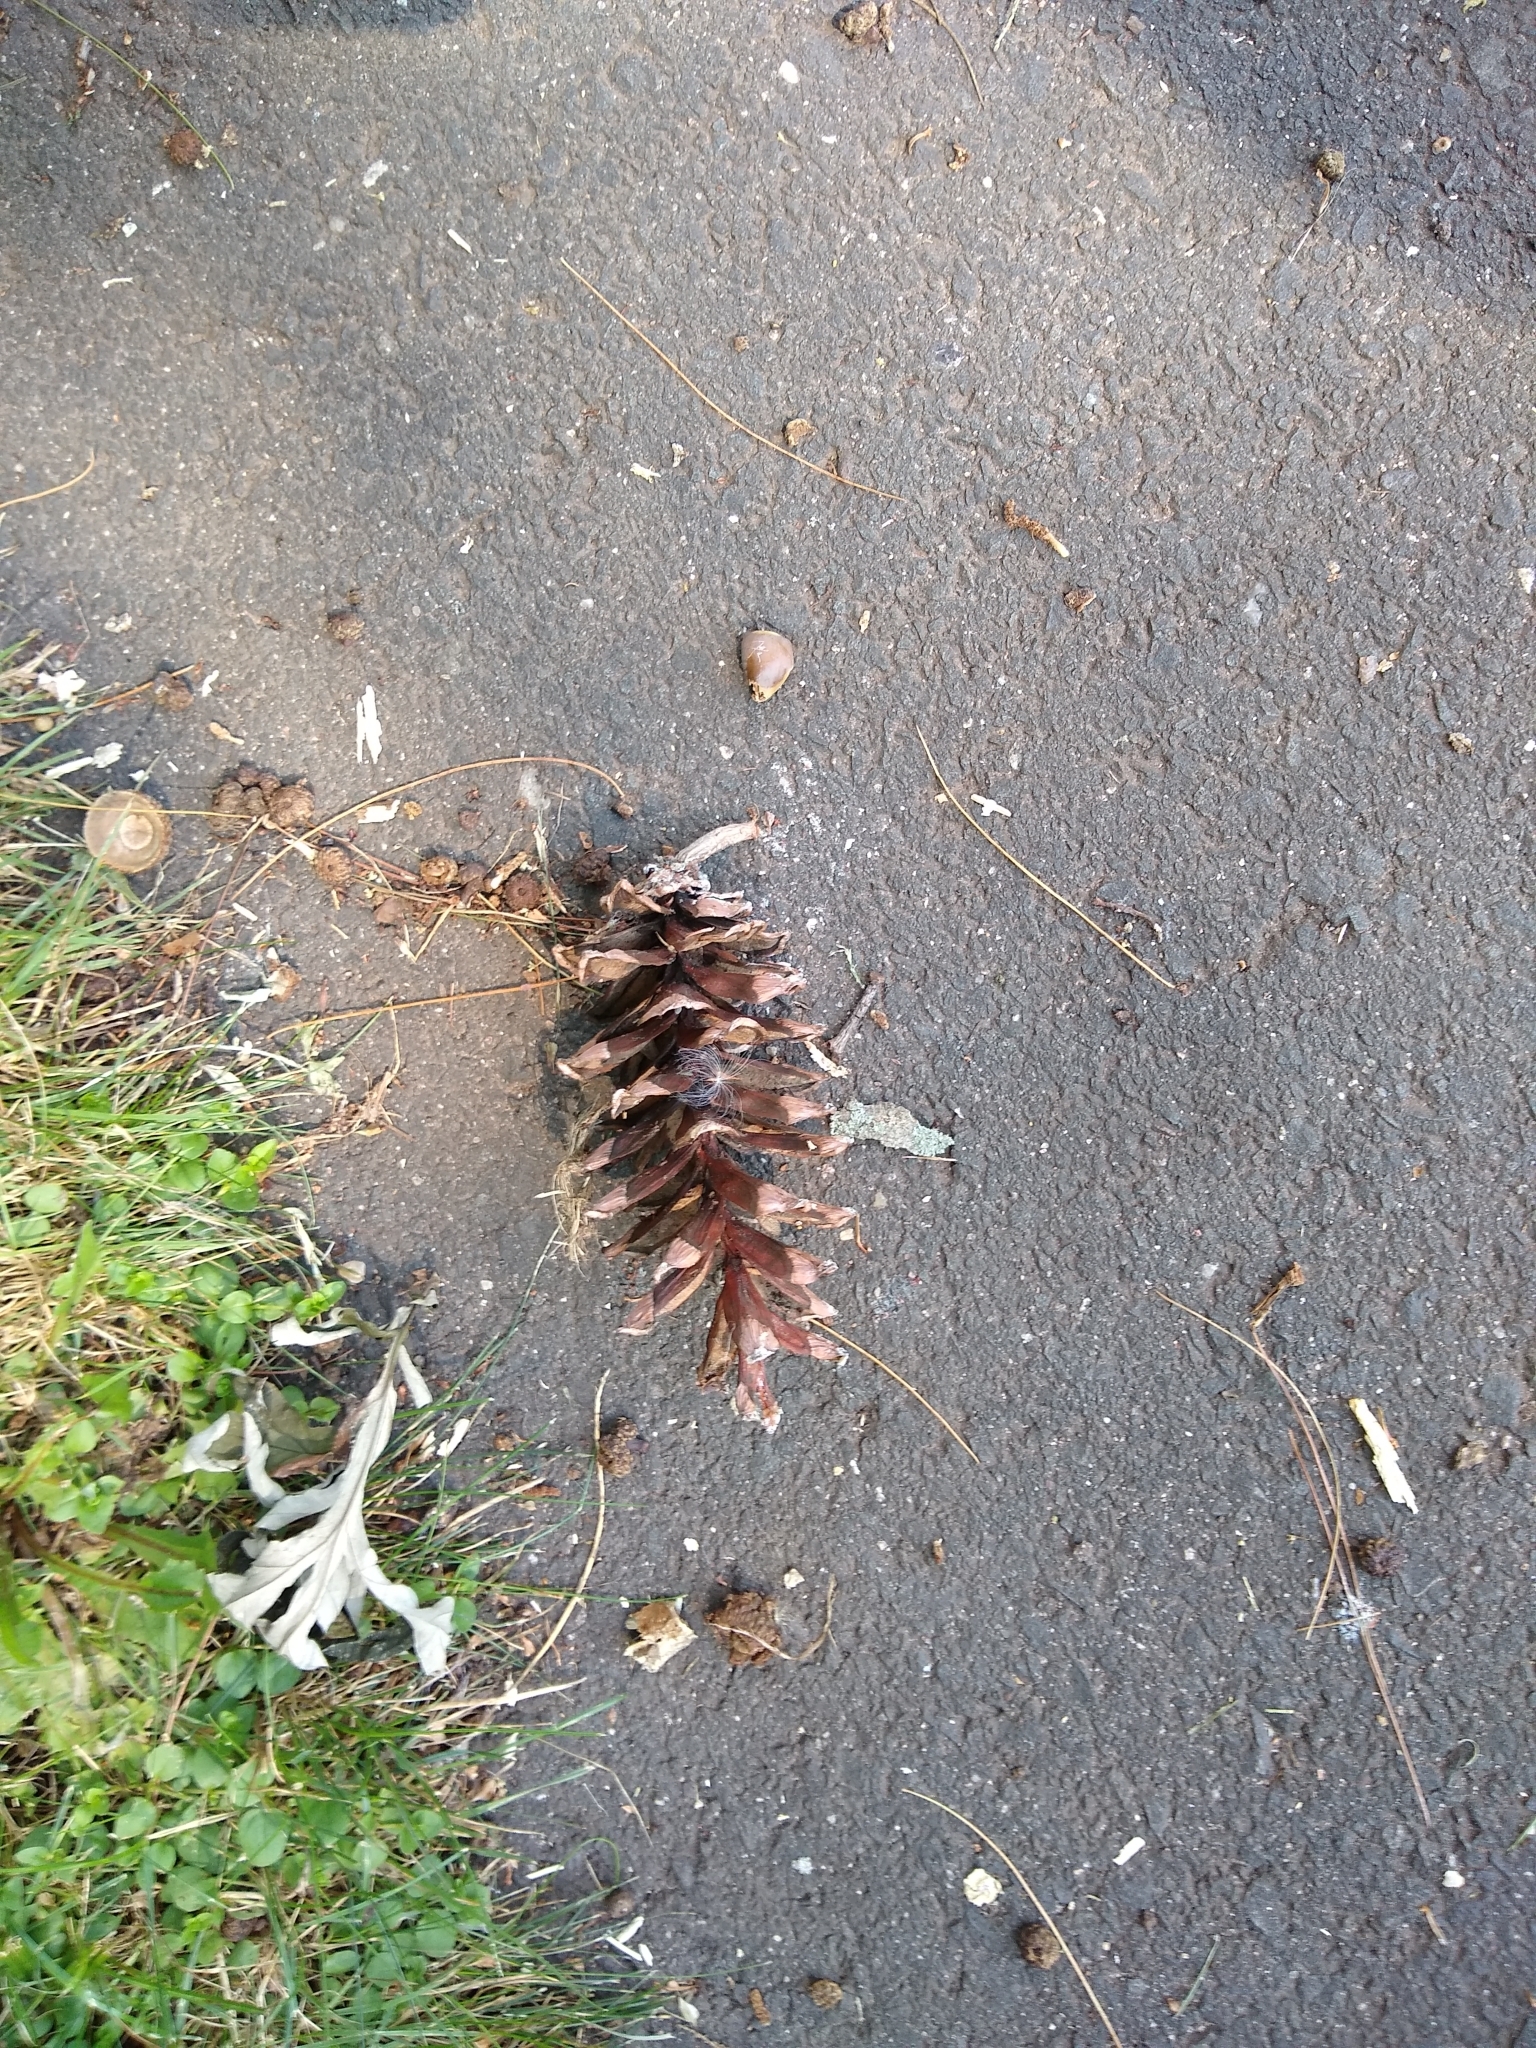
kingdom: Plantae
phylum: Tracheophyta
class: Pinopsida
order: Pinales
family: Pinaceae
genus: Pinus
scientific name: Pinus strobus
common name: Weymouth pine
